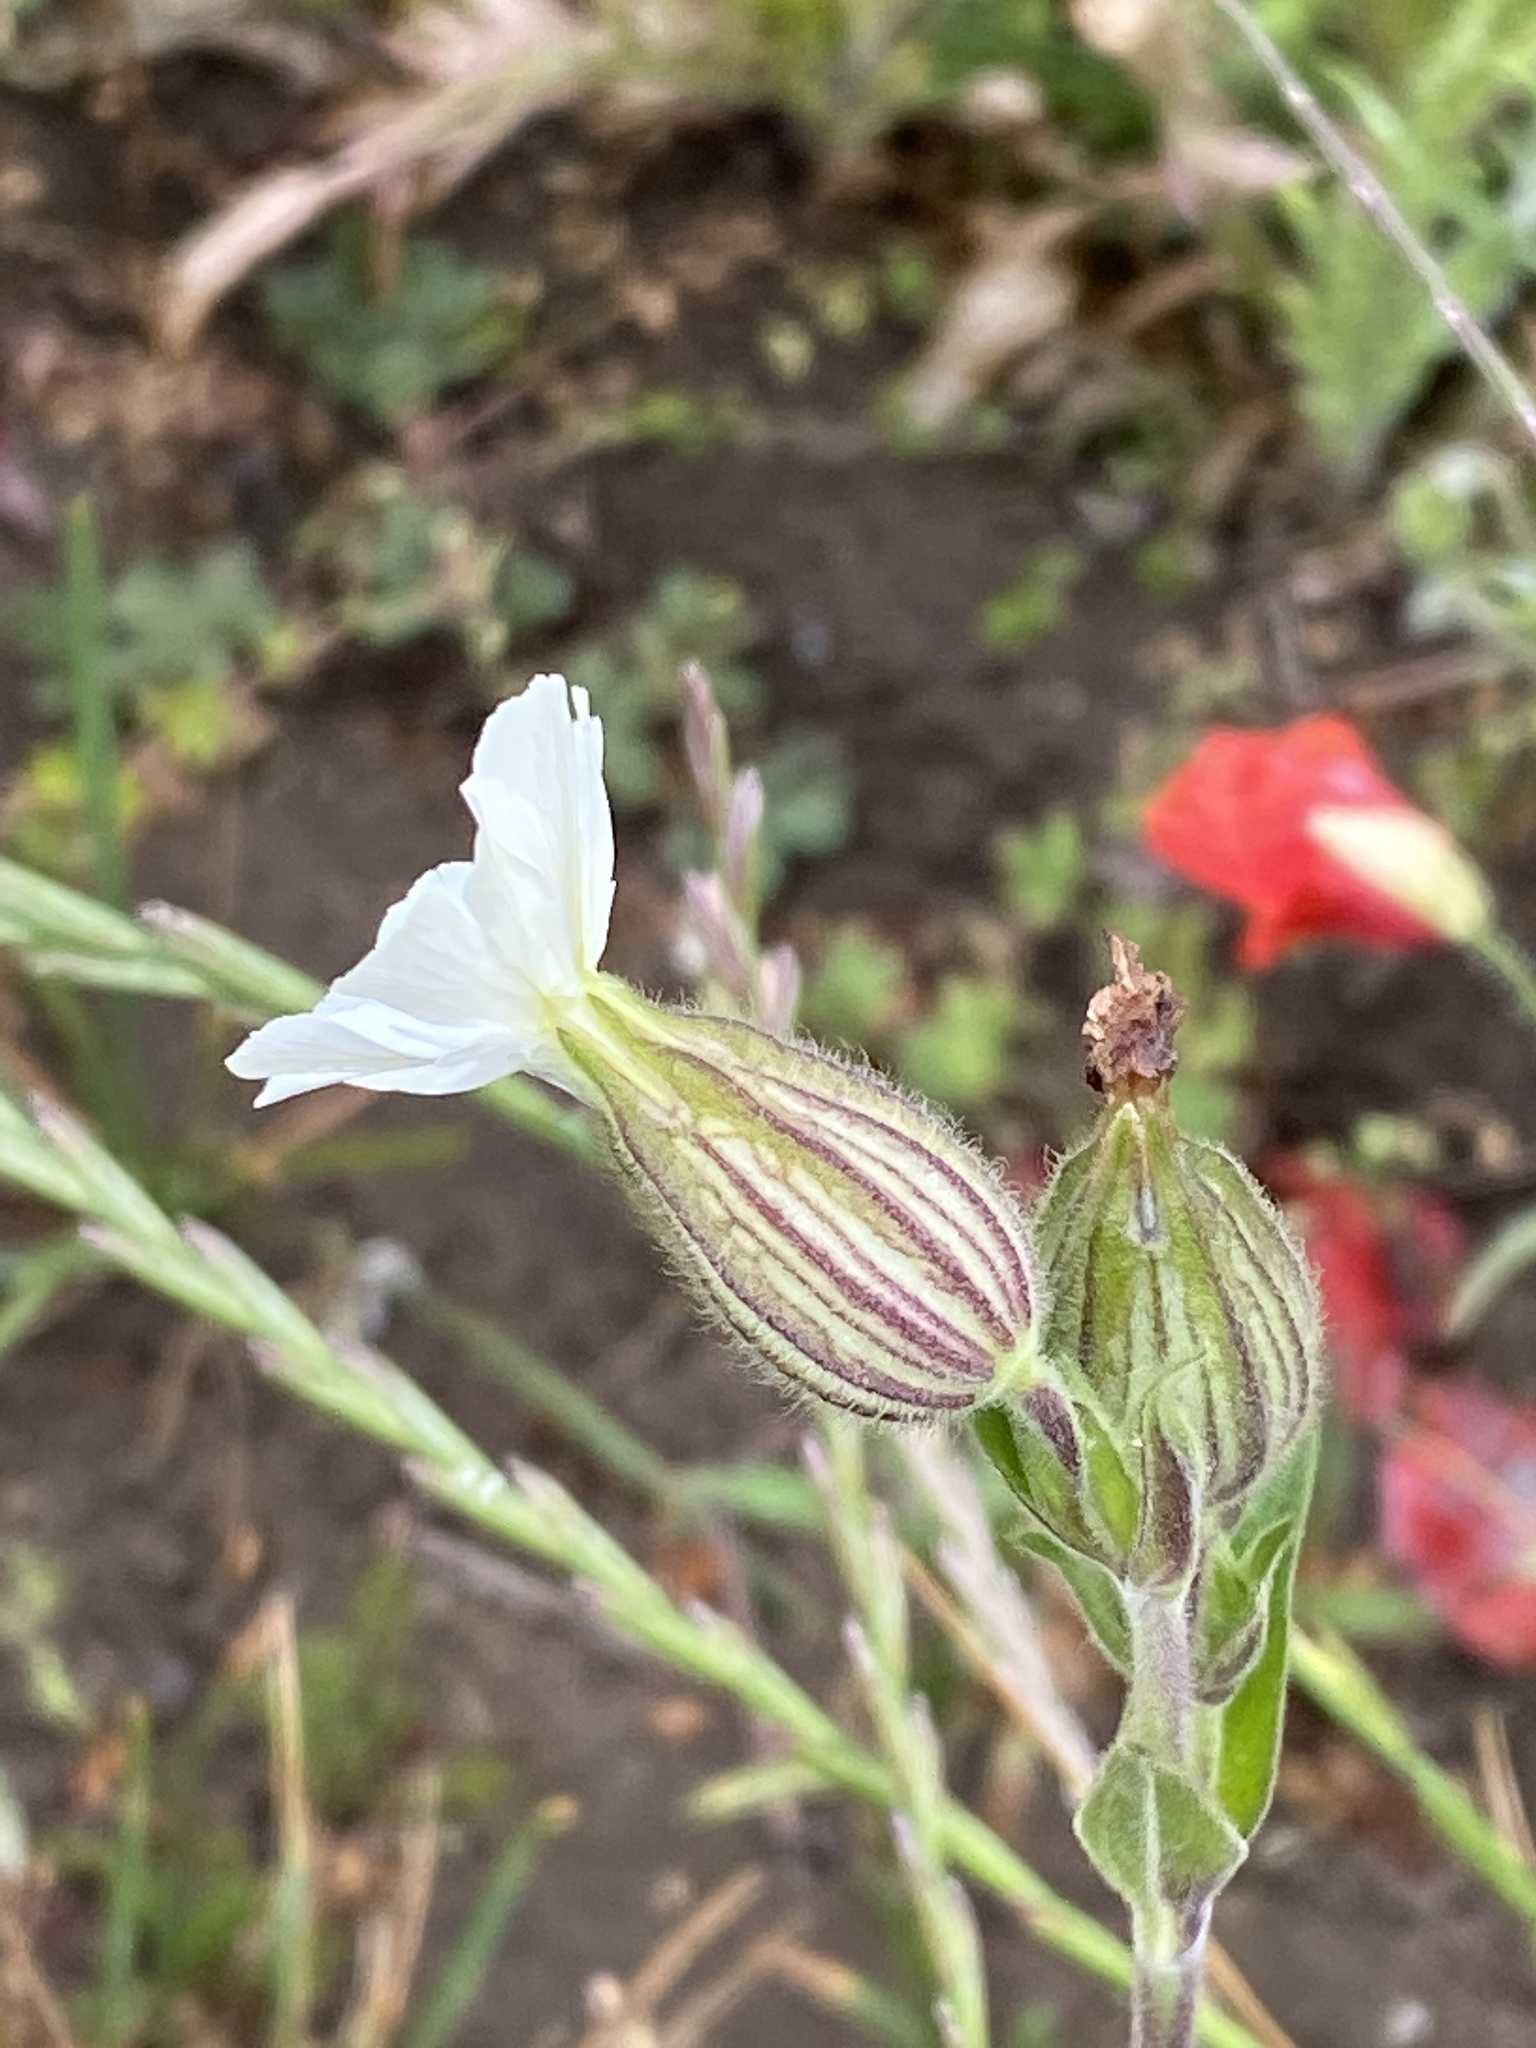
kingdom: Plantae
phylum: Tracheophyta
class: Magnoliopsida
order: Caryophyllales
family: Caryophyllaceae
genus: Silene
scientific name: Silene latifolia
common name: White campion
